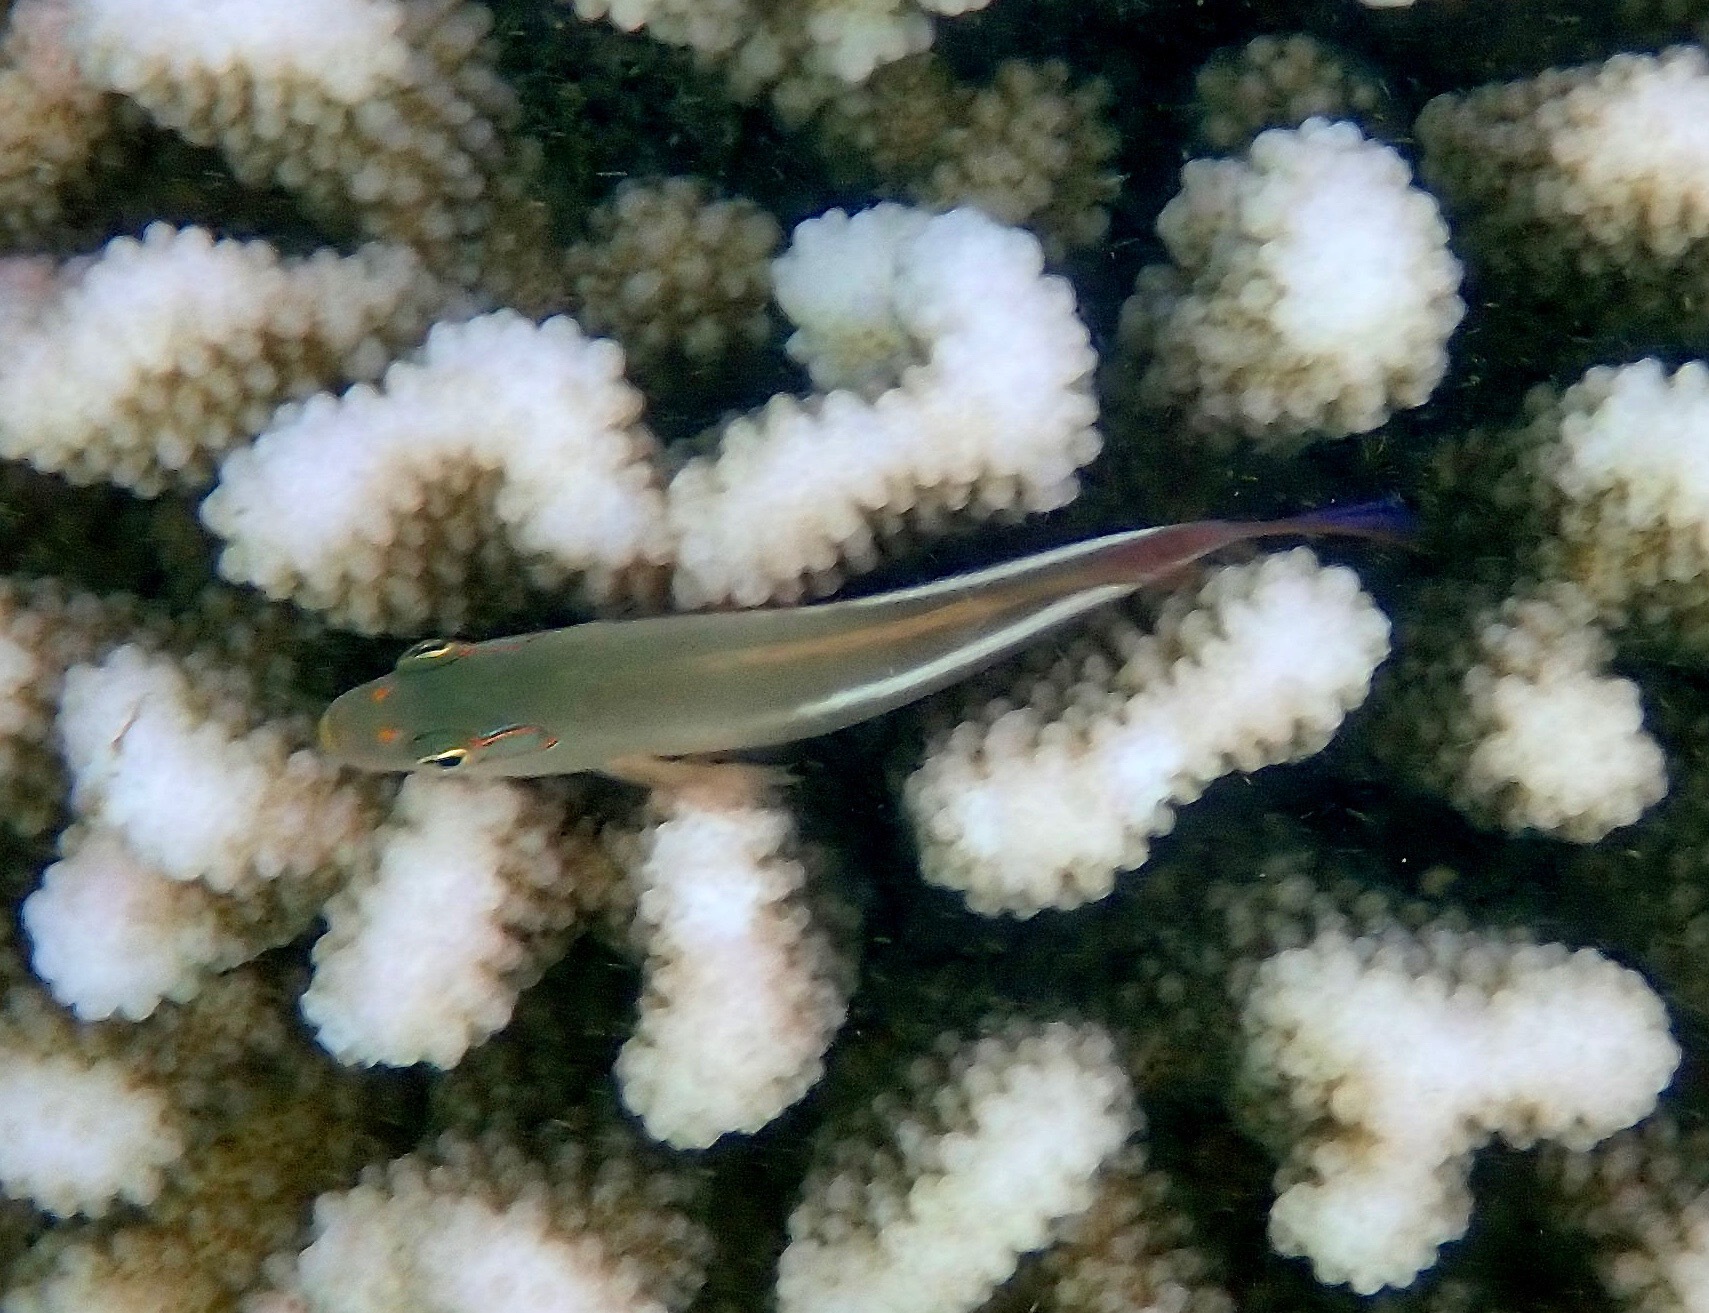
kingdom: Animalia
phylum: Chordata
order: Perciformes
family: Cirrhitidae
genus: Paracirrhites
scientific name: Paracirrhites arcatus
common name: Arc-eye hawkfish
